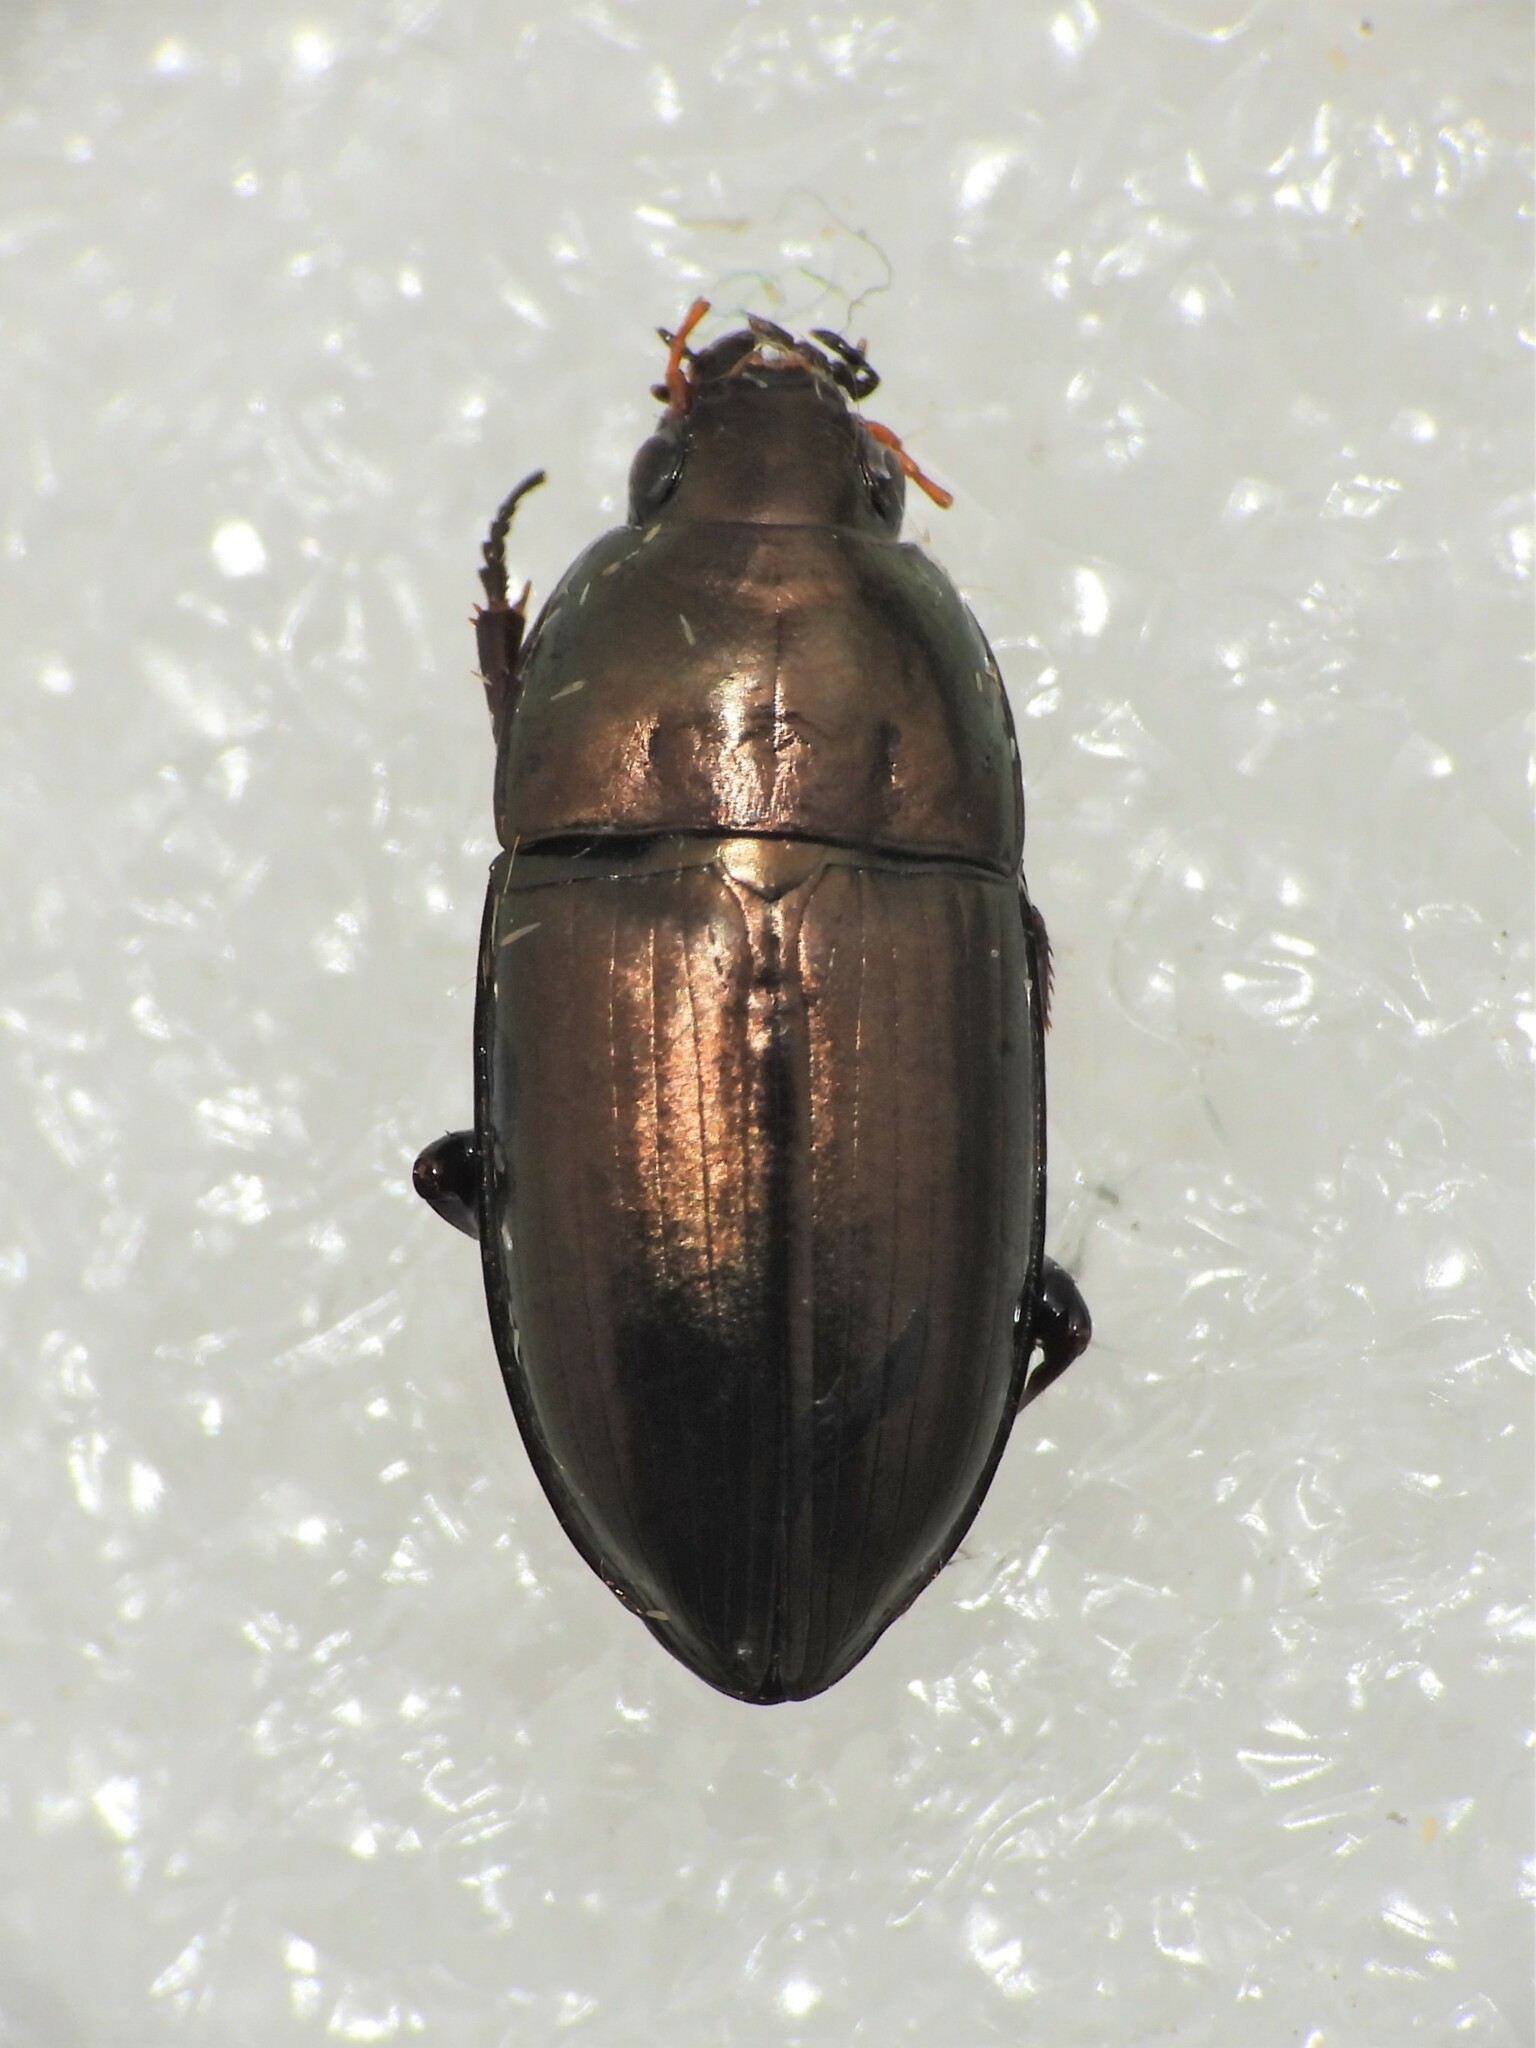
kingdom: Animalia
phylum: Arthropoda
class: Insecta
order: Coleoptera
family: Carabidae
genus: Amara
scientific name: Amara aenea
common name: Common sun beetle
